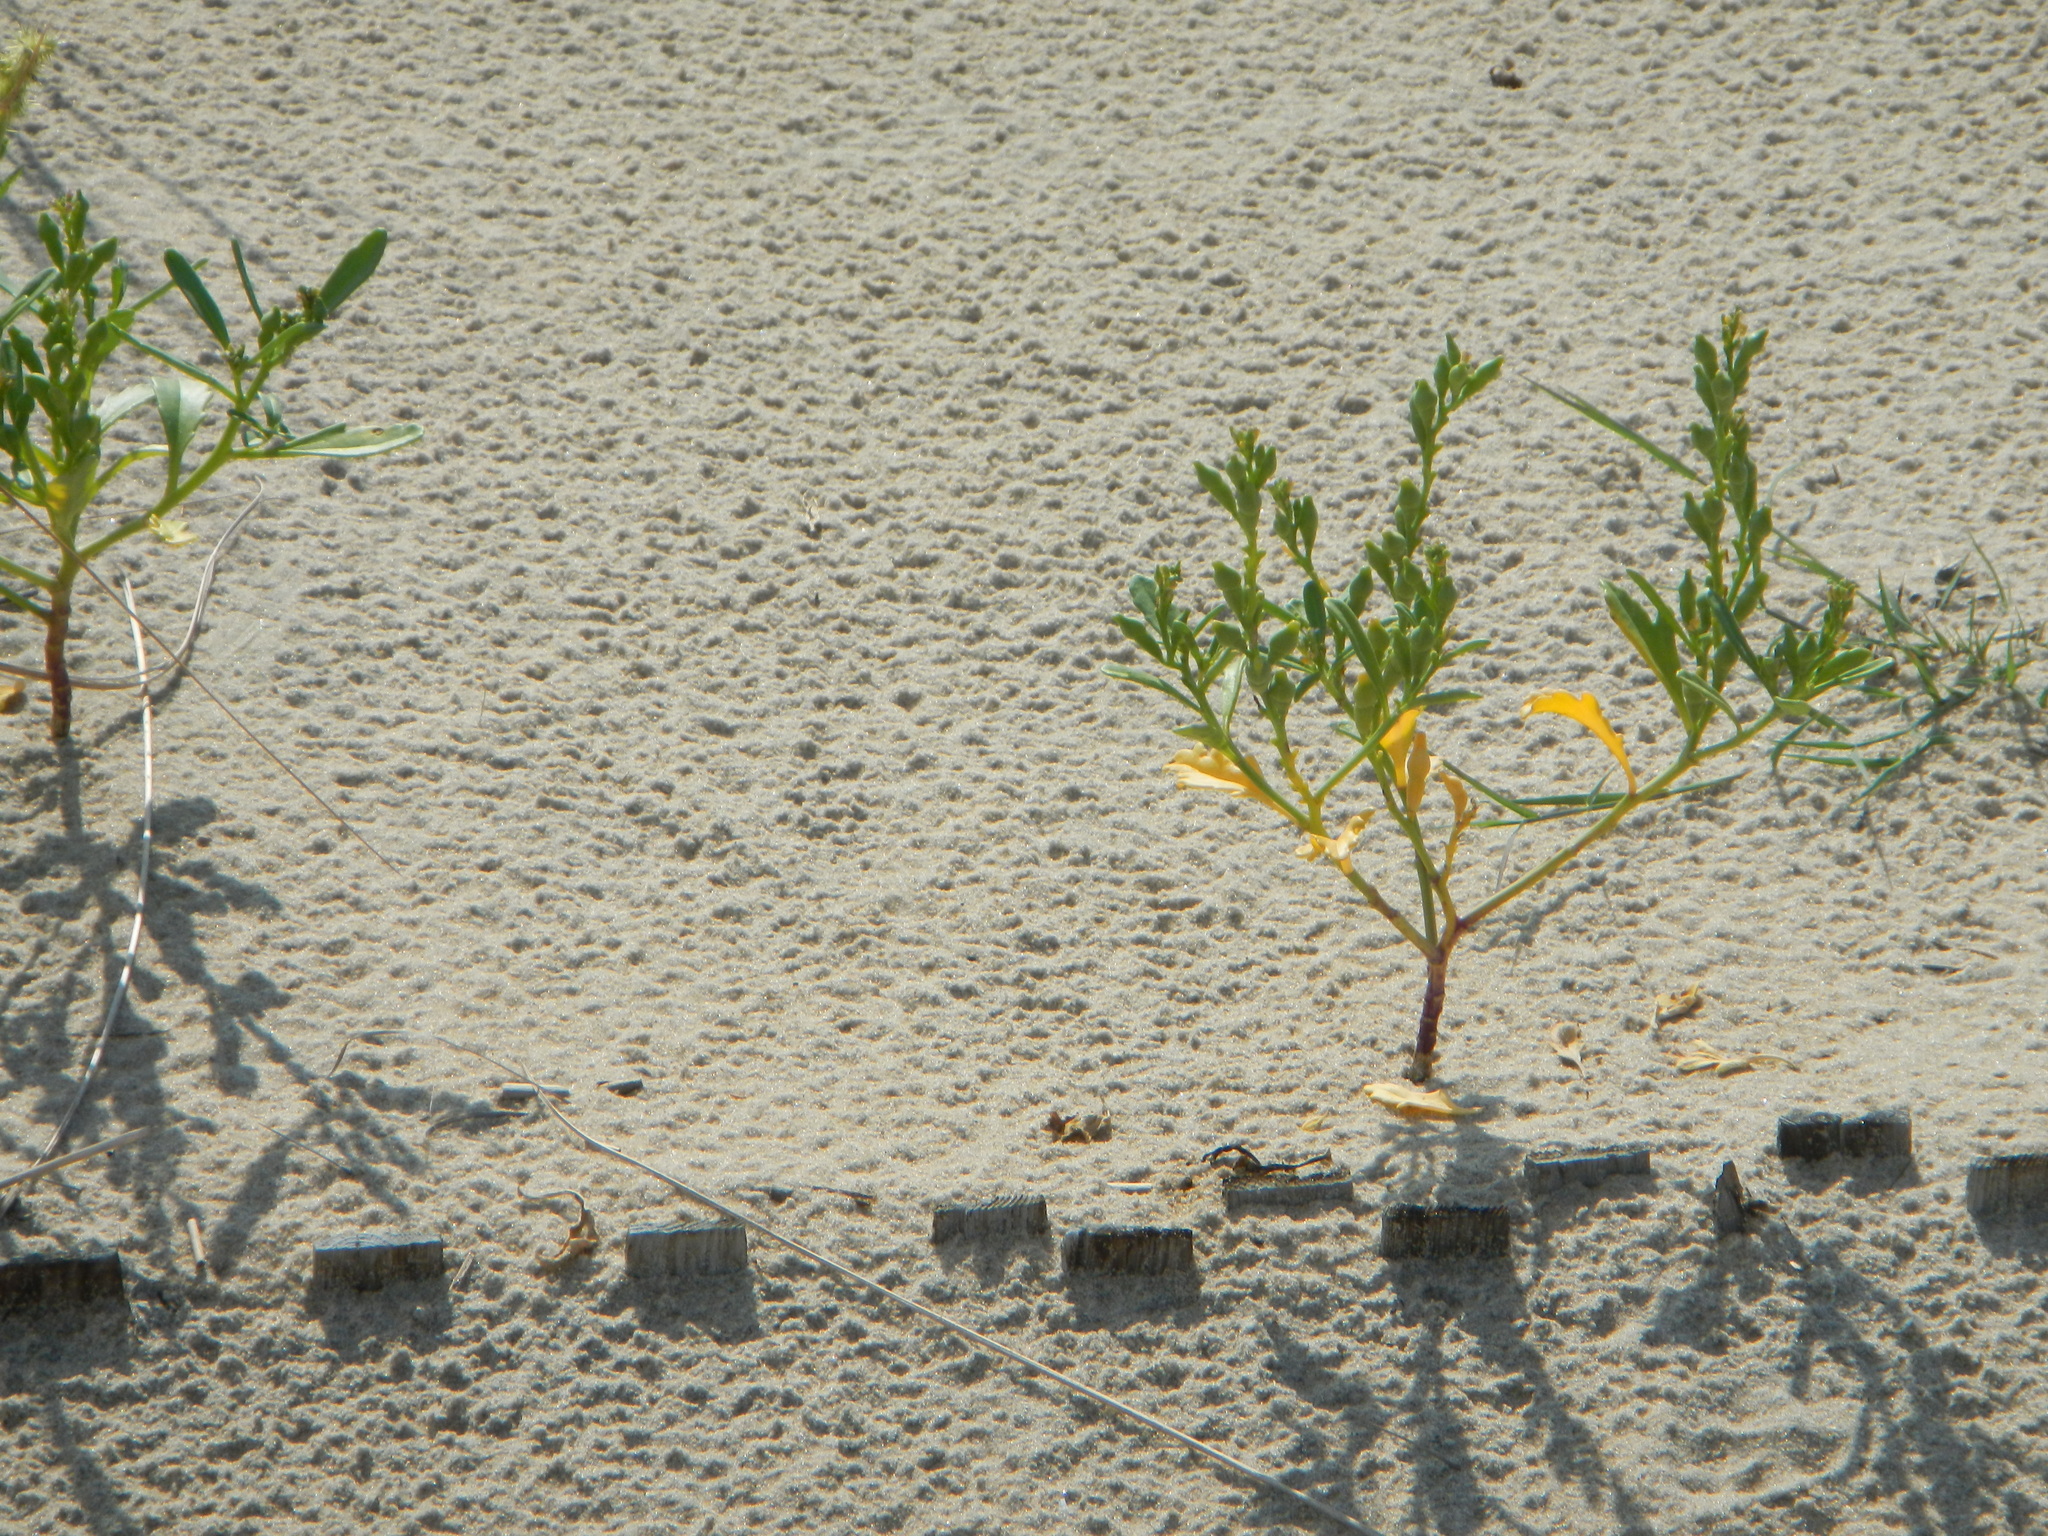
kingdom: Plantae
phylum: Tracheophyta
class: Magnoliopsida
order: Brassicales
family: Brassicaceae
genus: Cakile
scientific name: Cakile edentula
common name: American sea rocket
